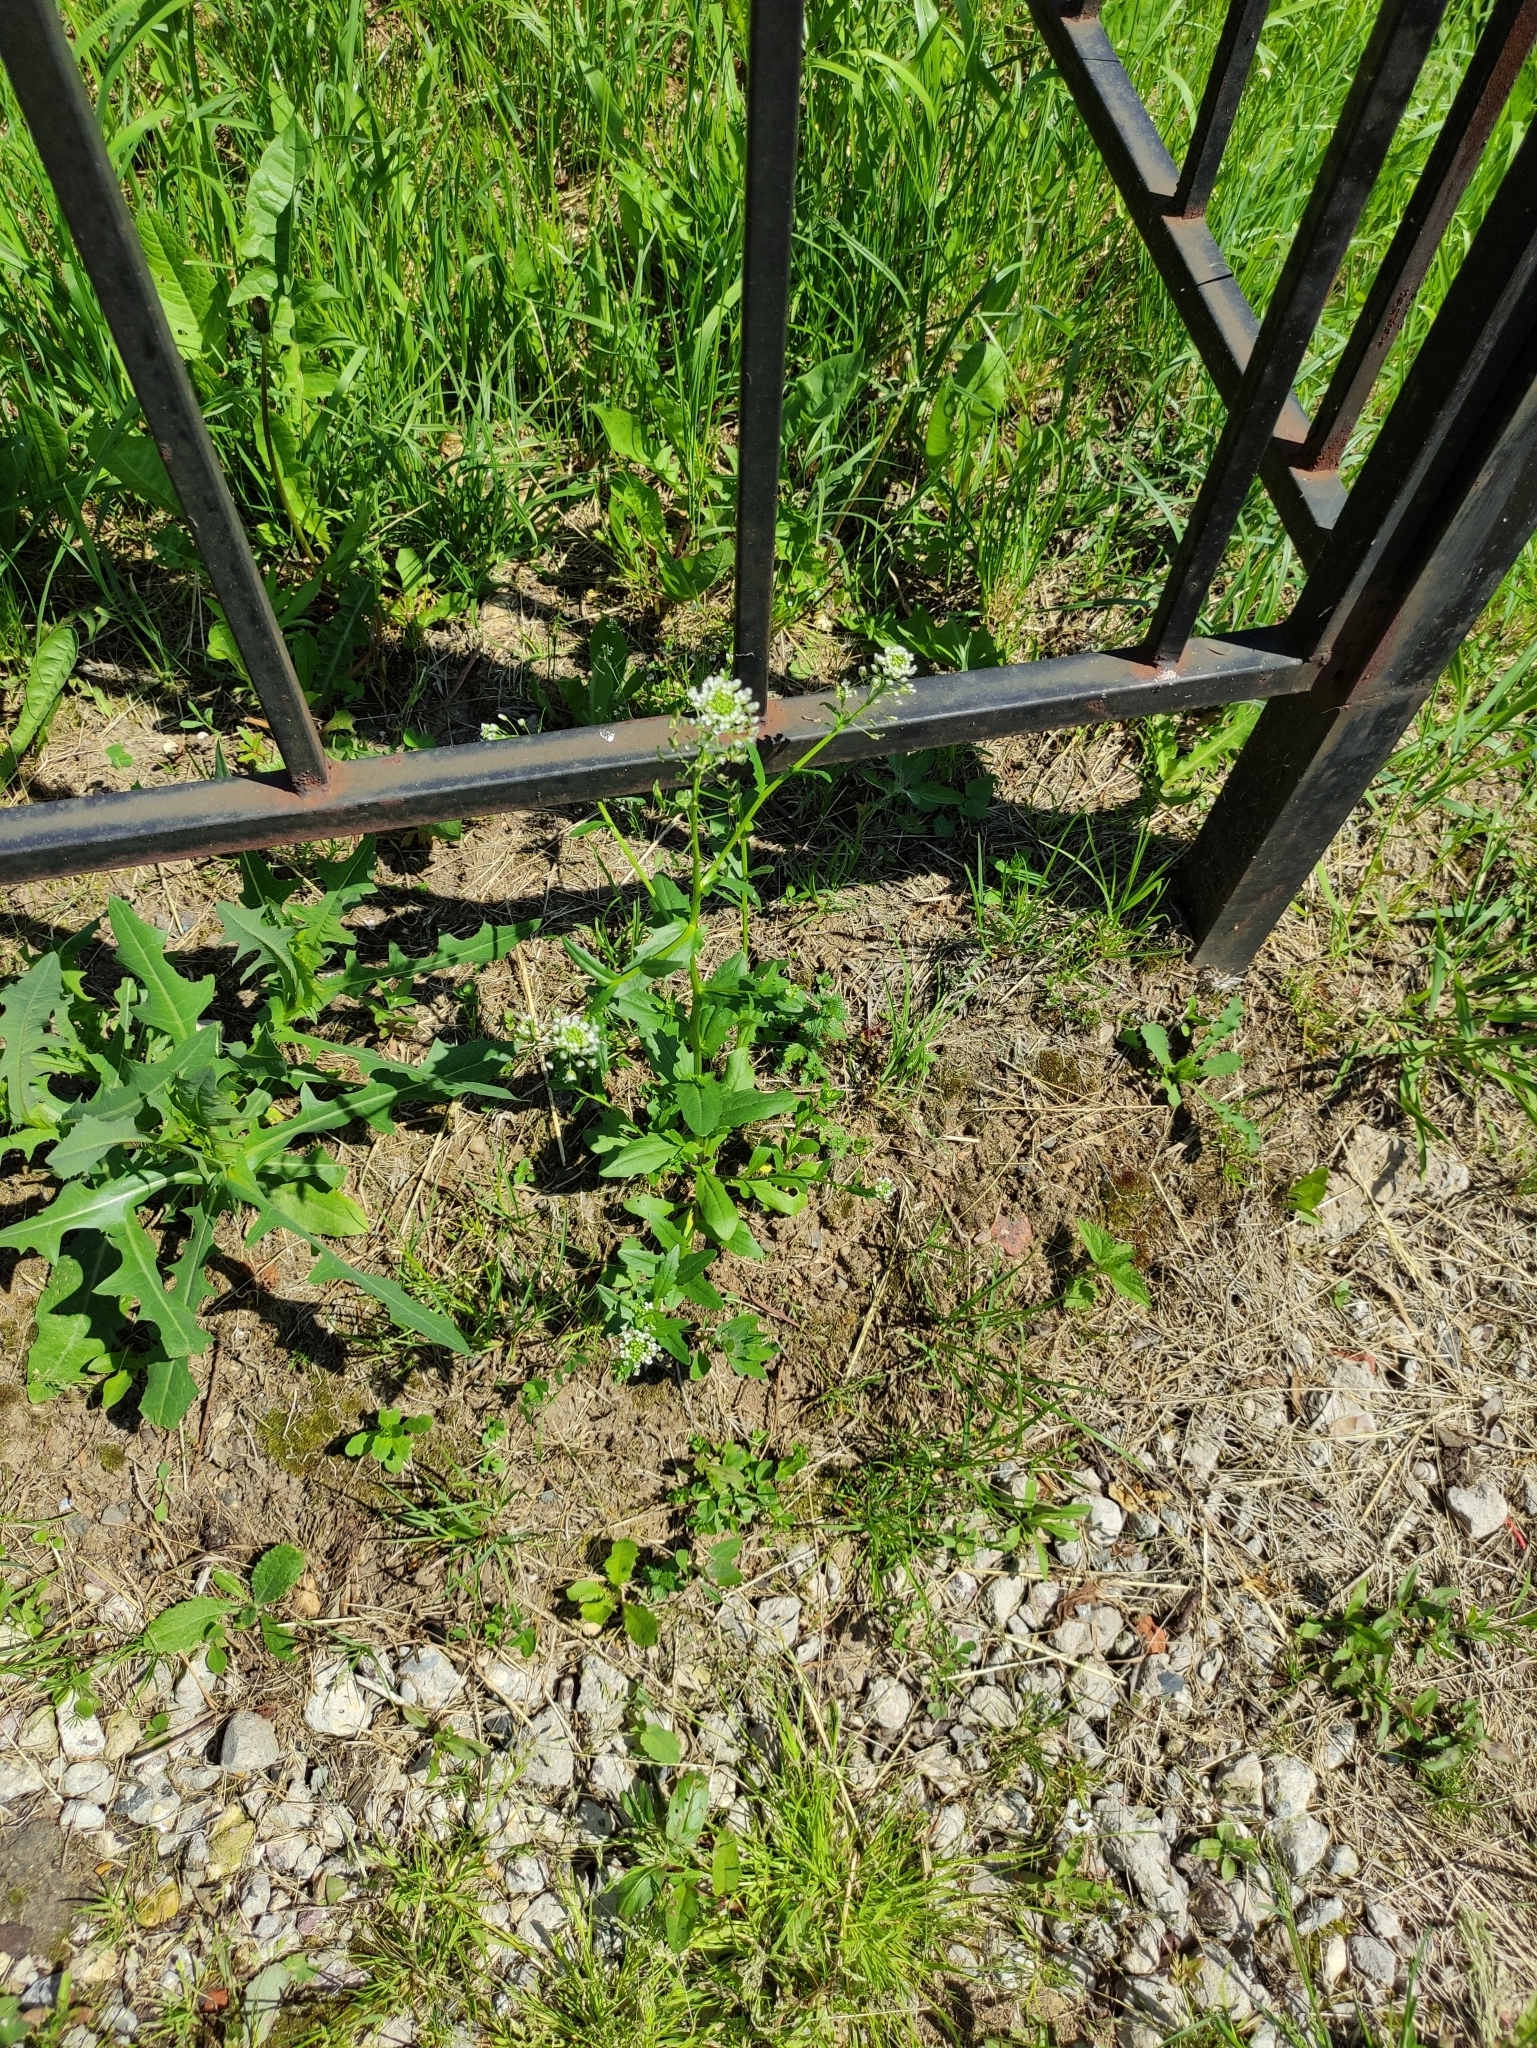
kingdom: Plantae
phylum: Tracheophyta
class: Magnoliopsida
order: Brassicales
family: Brassicaceae
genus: Thlaspi
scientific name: Thlaspi arvense
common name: Field pennycress
